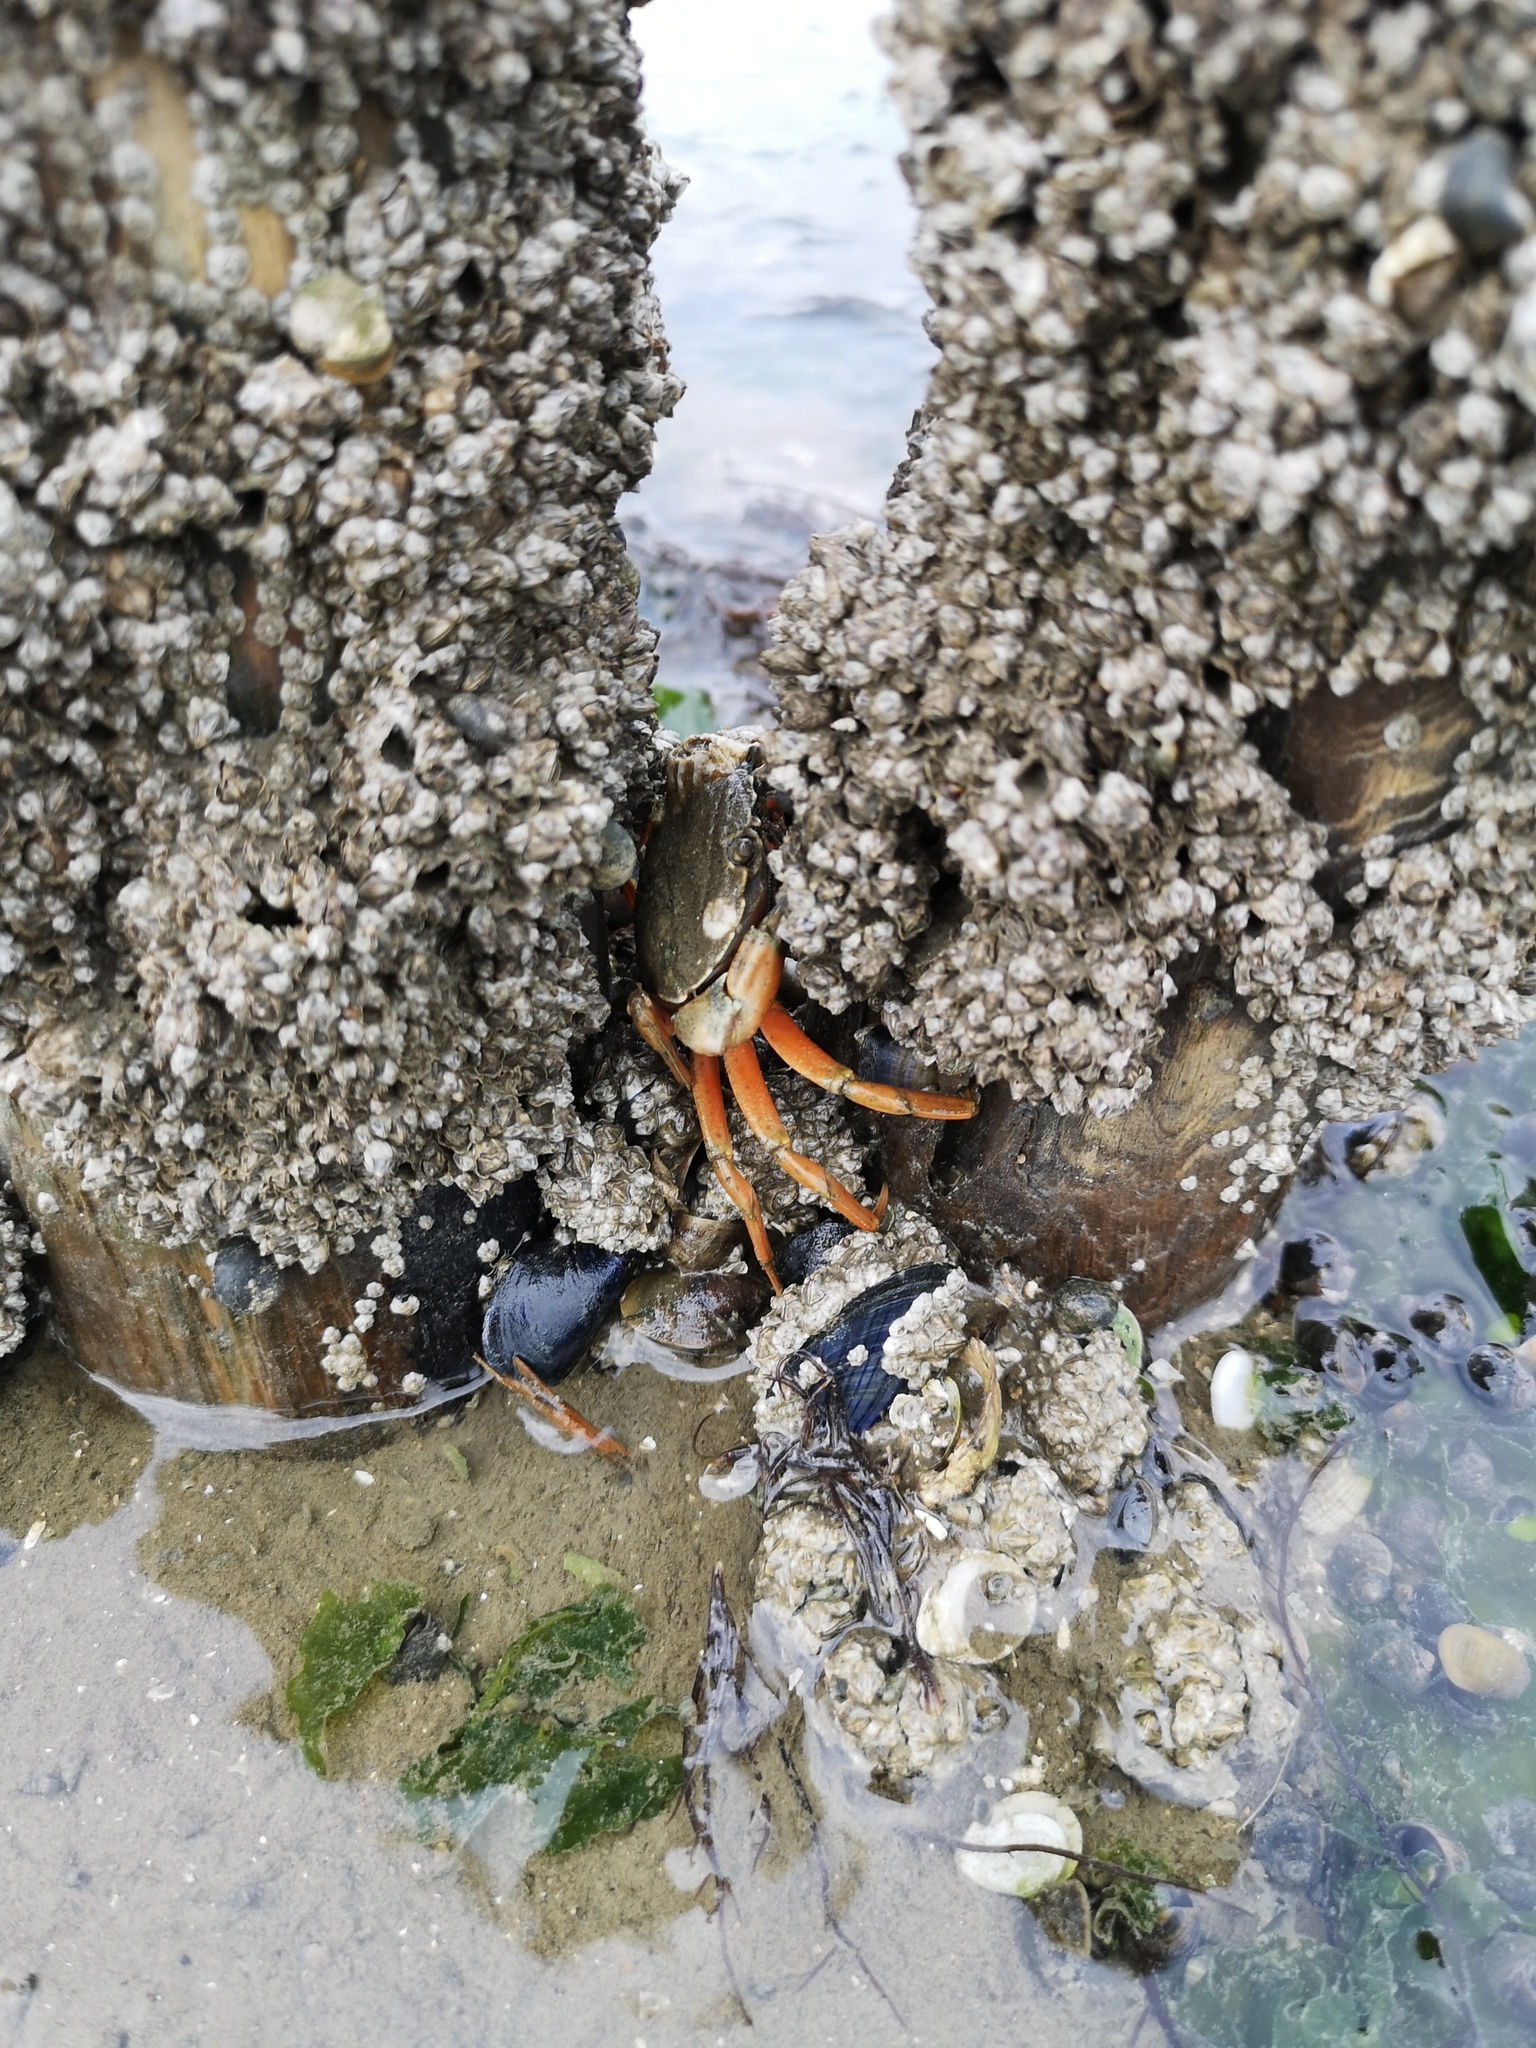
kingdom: Animalia
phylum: Arthropoda
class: Malacostraca
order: Decapoda
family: Carcinidae
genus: Carcinus
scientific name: Carcinus maenas
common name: European green crab
